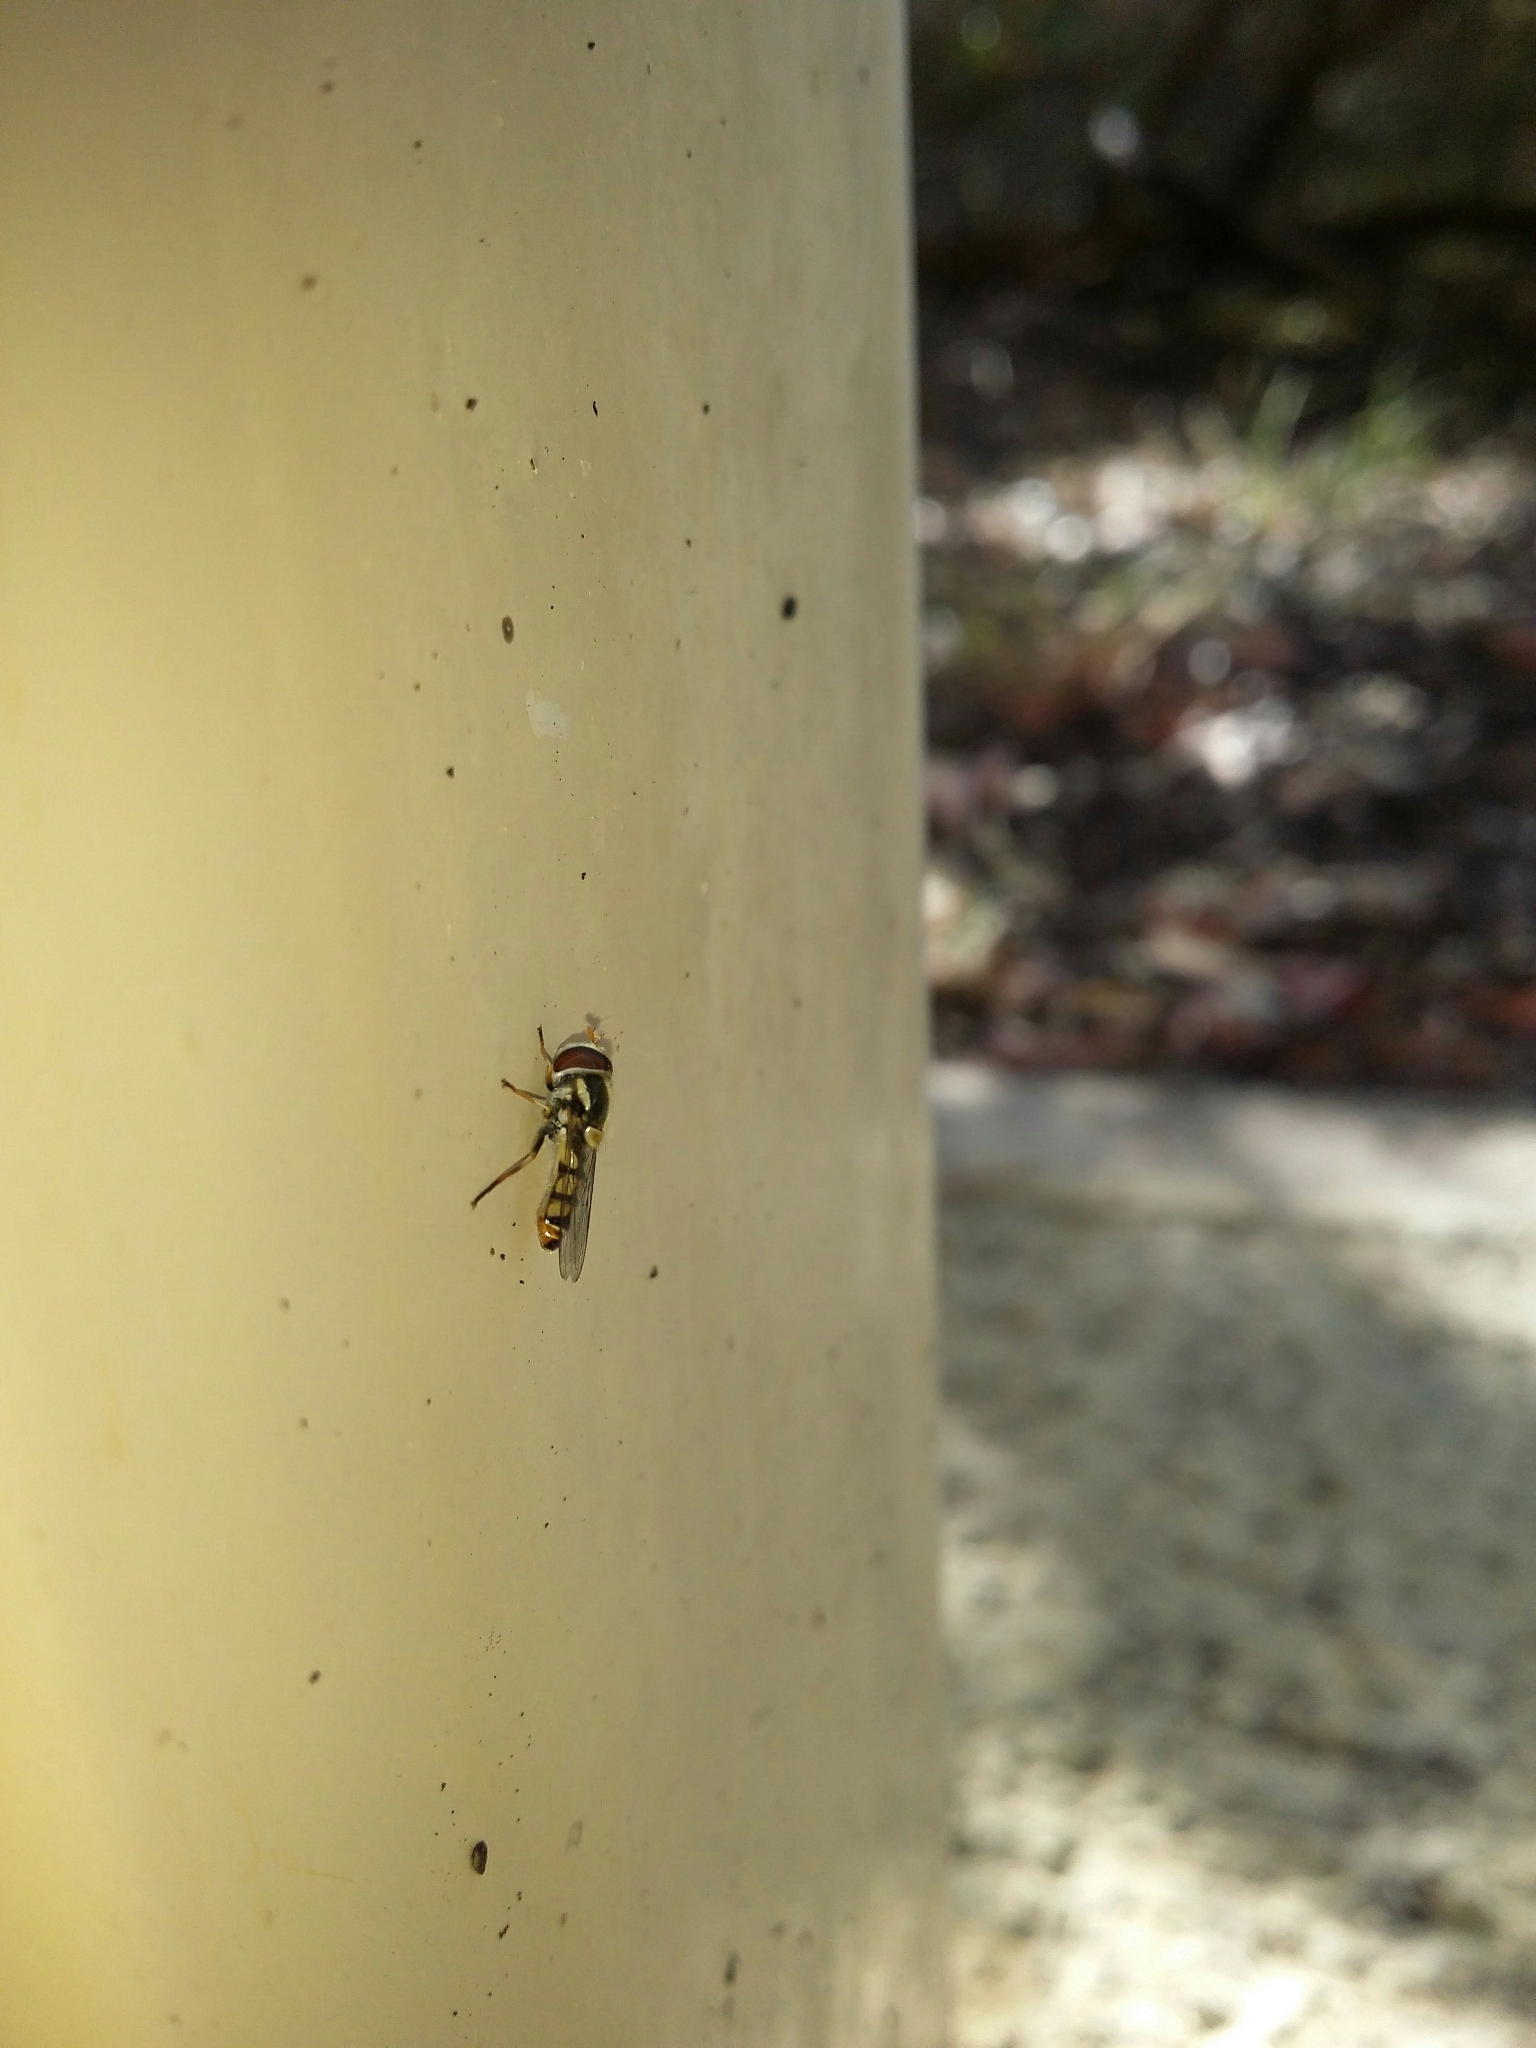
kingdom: Animalia
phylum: Arthropoda
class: Insecta
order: Diptera
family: Syrphidae
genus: Simosyrphus
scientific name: Simosyrphus grandicornis
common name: Hoverfly
